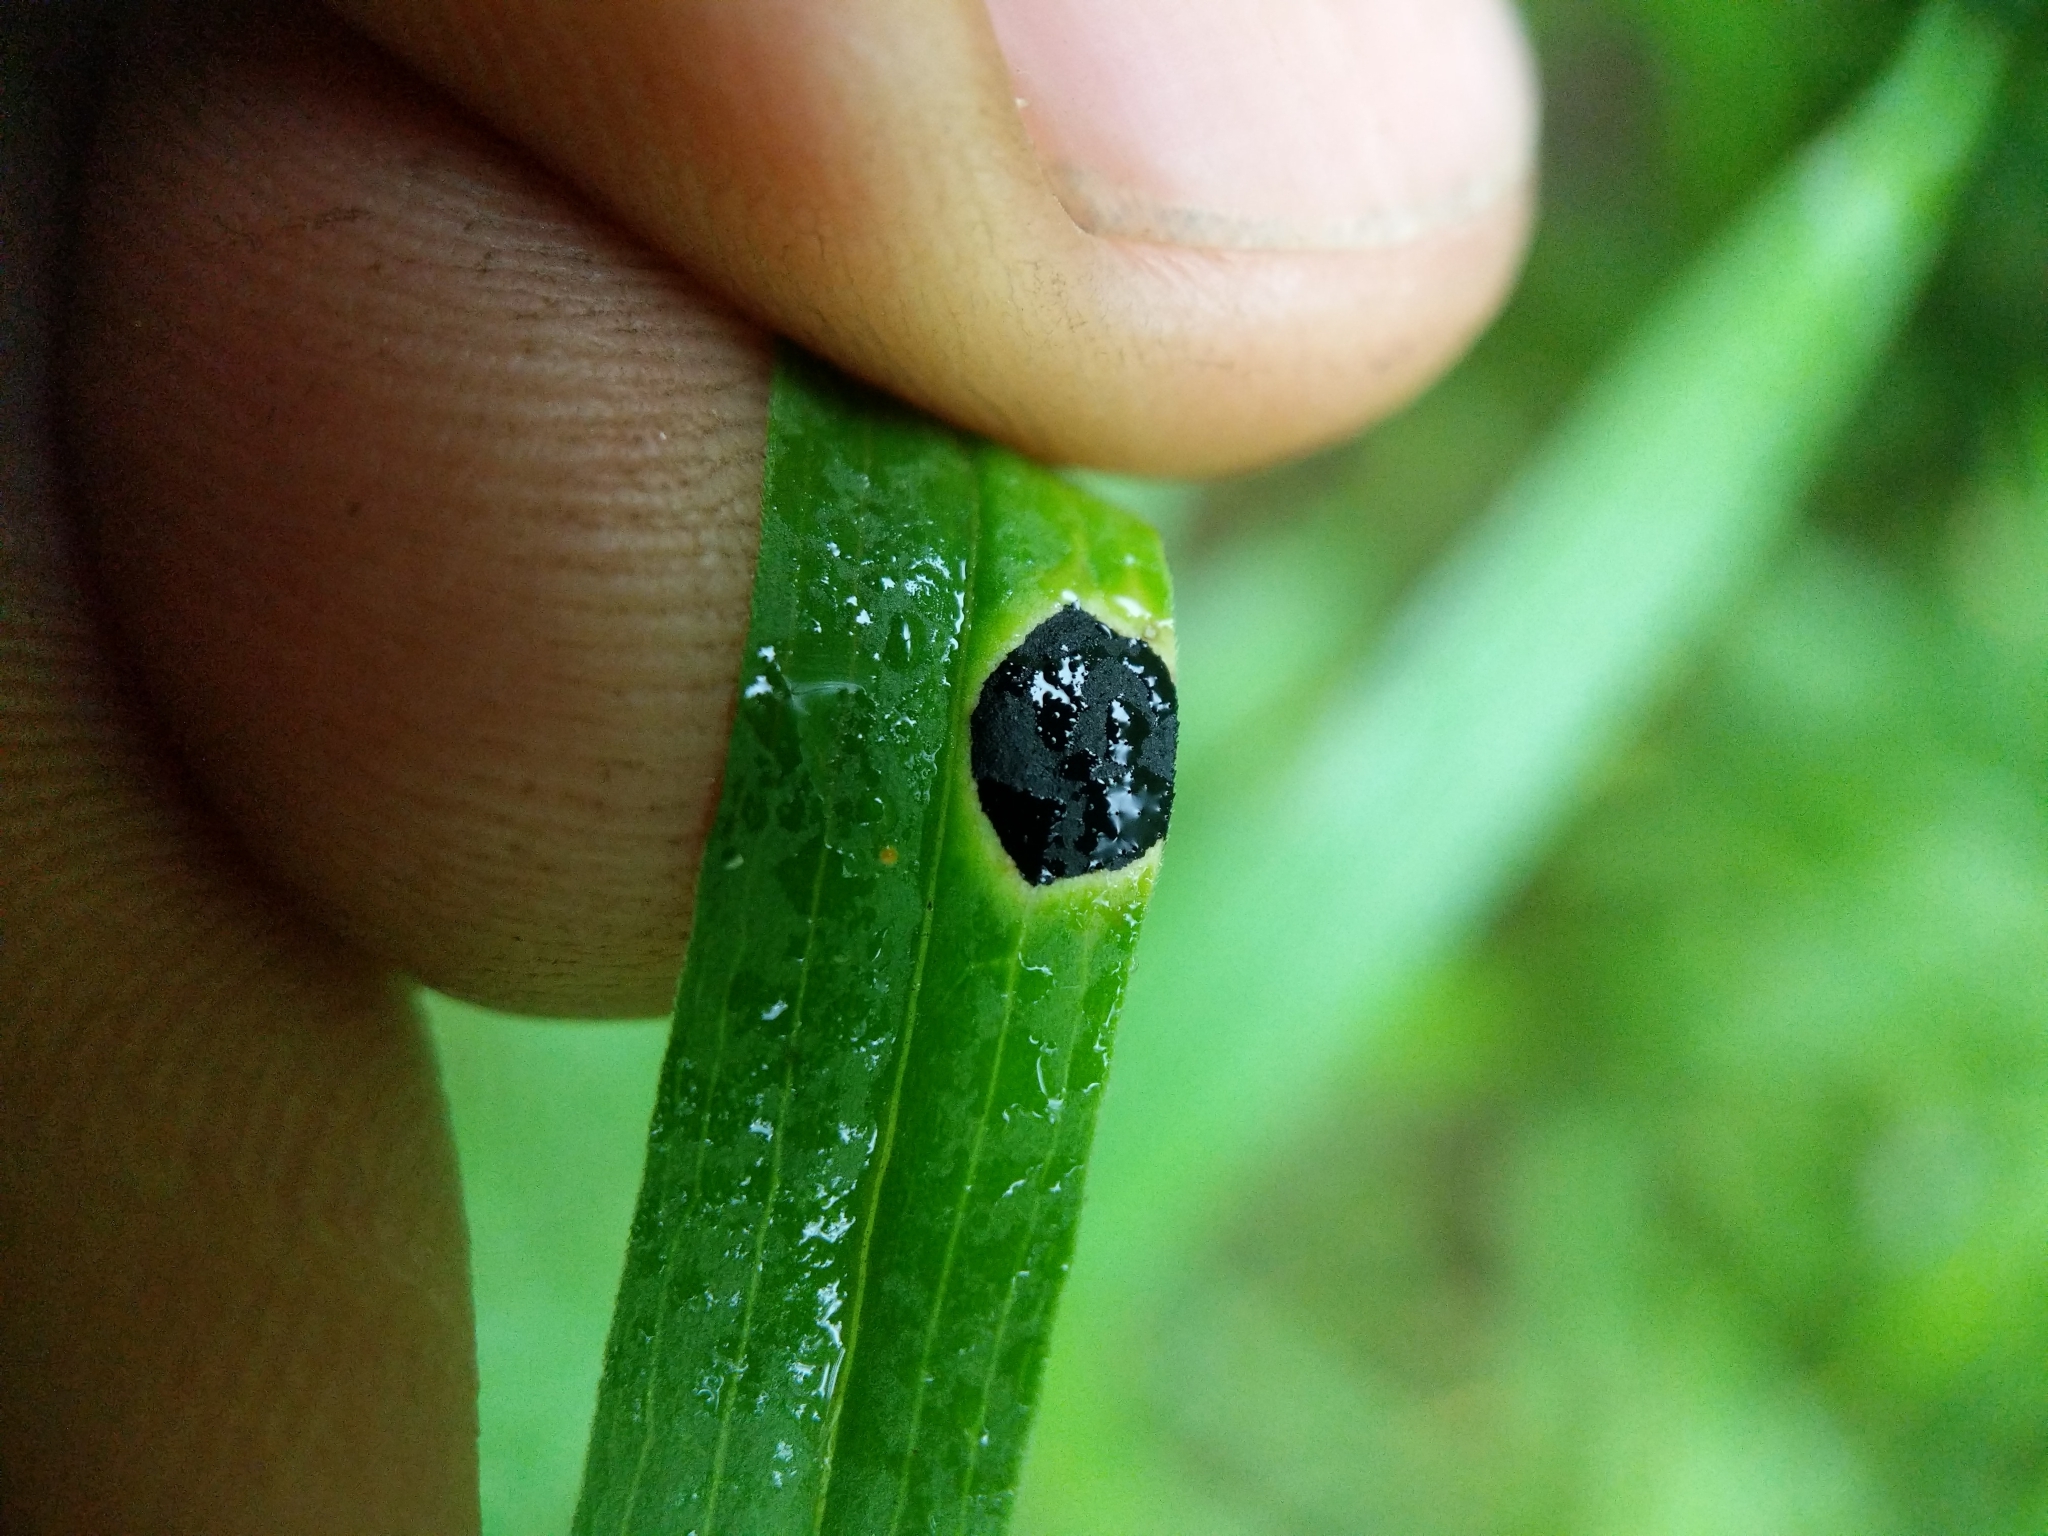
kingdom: Animalia
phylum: Arthropoda
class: Insecta
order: Diptera
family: Cecidomyiidae
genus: Asteromyia
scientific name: Asteromyia euthamiae
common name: Euthamia leaf gall midge
